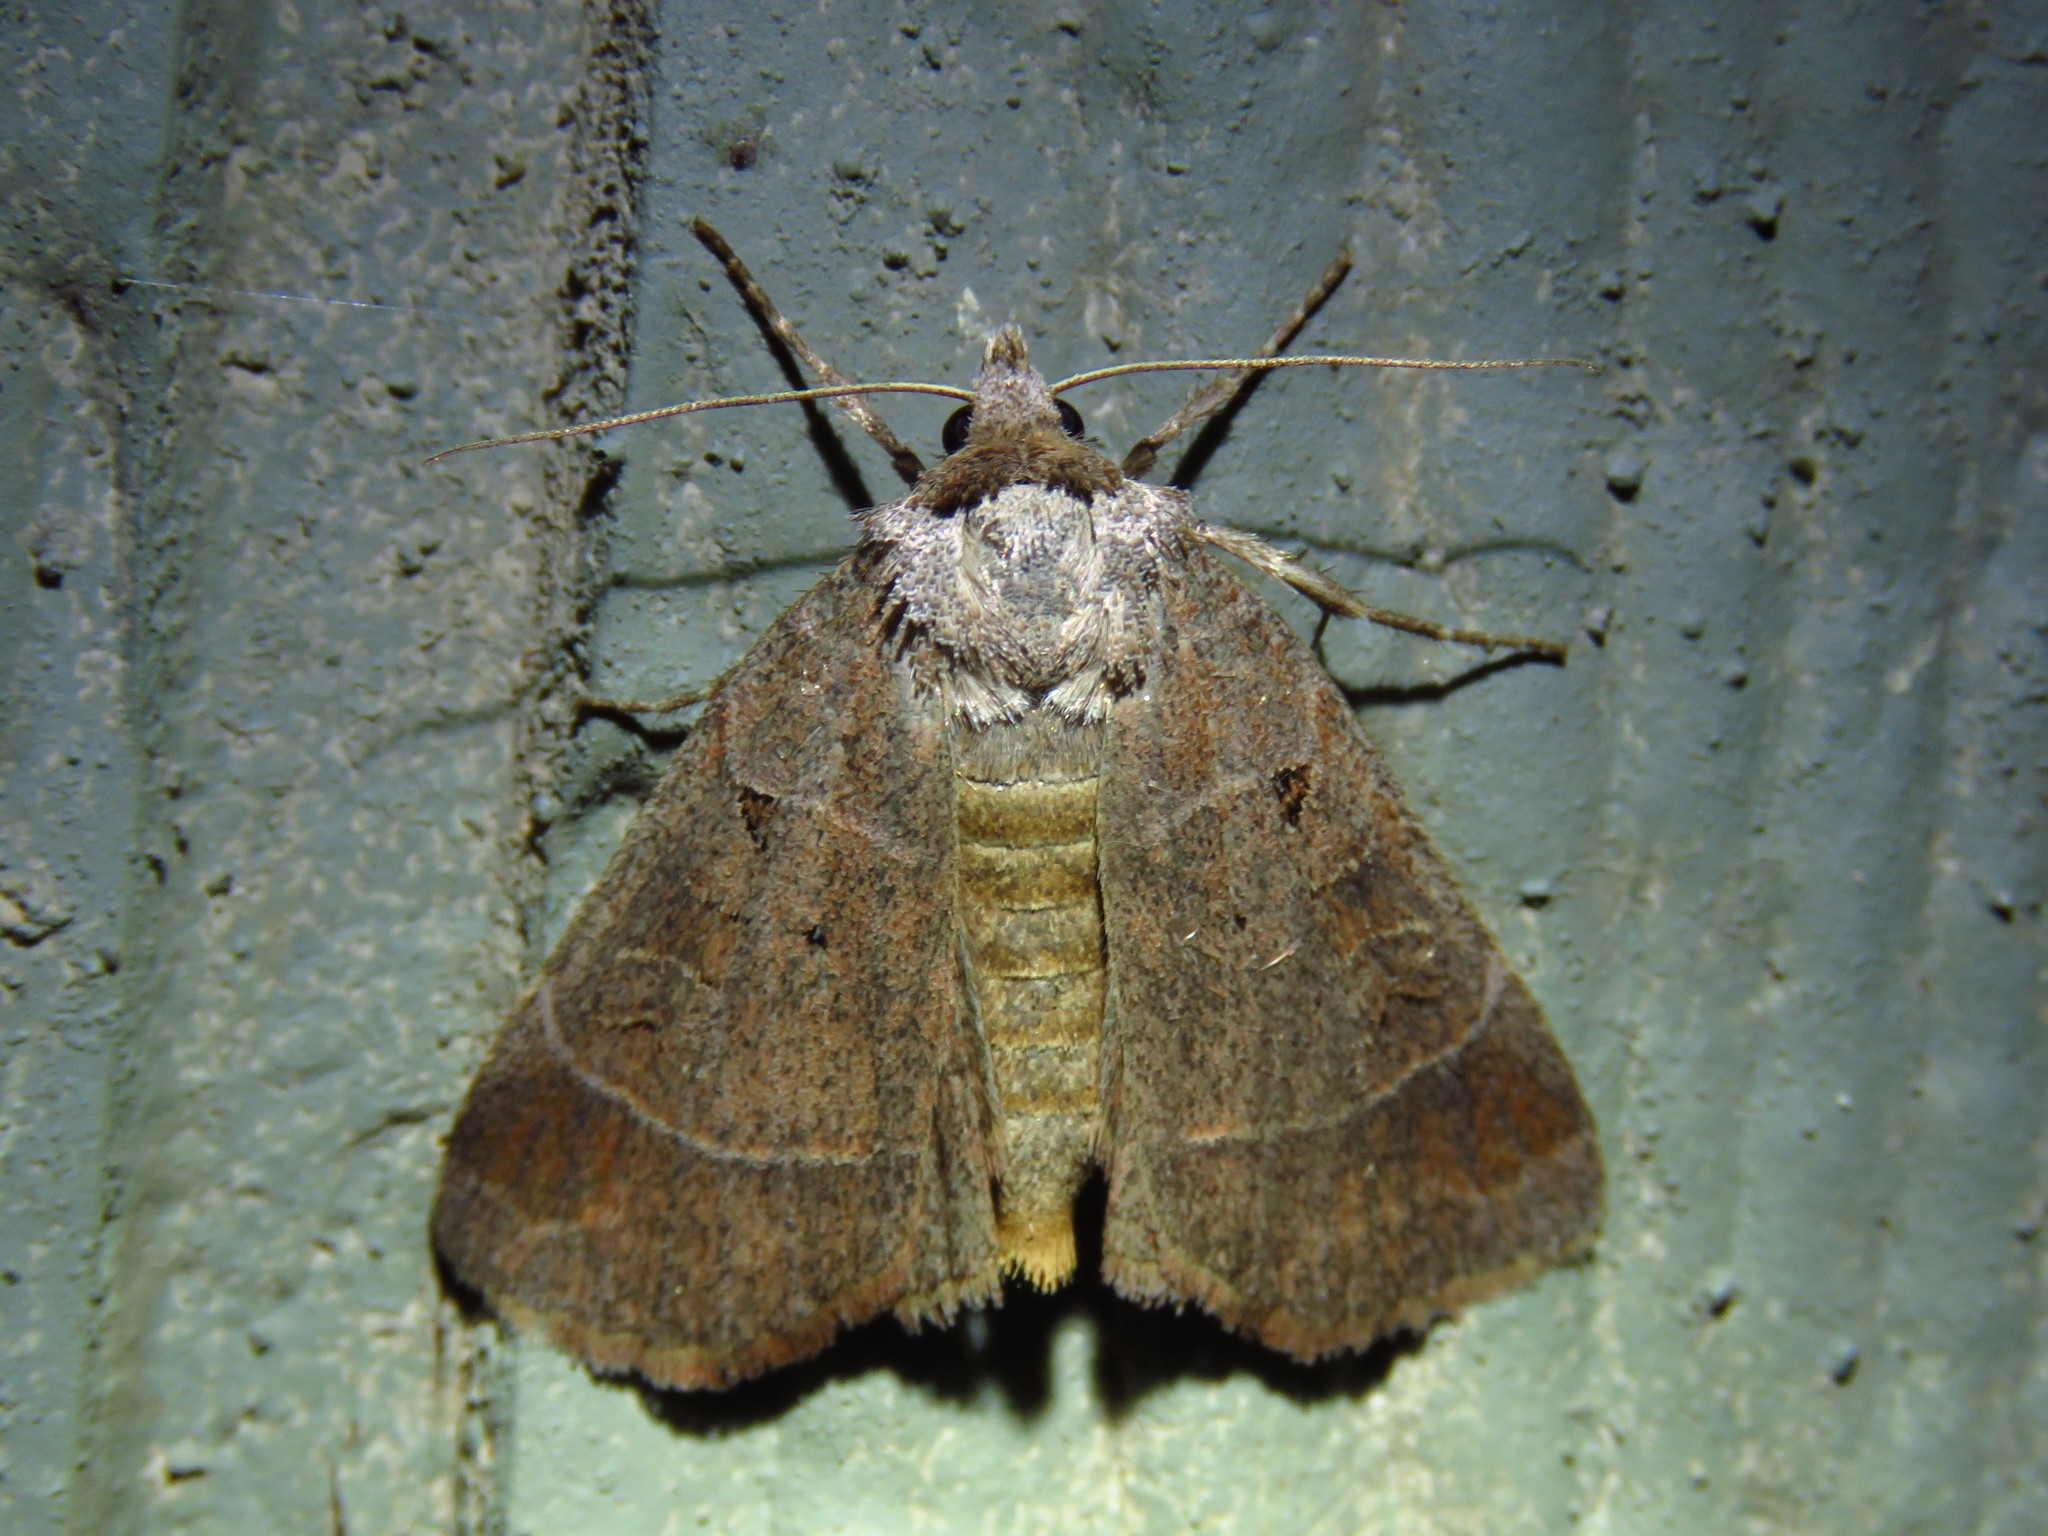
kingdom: Animalia
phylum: Arthropoda
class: Insecta
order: Lepidoptera
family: Noctuidae
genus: Agnorisma
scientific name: Agnorisma badinodis
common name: Pale-banded dart
